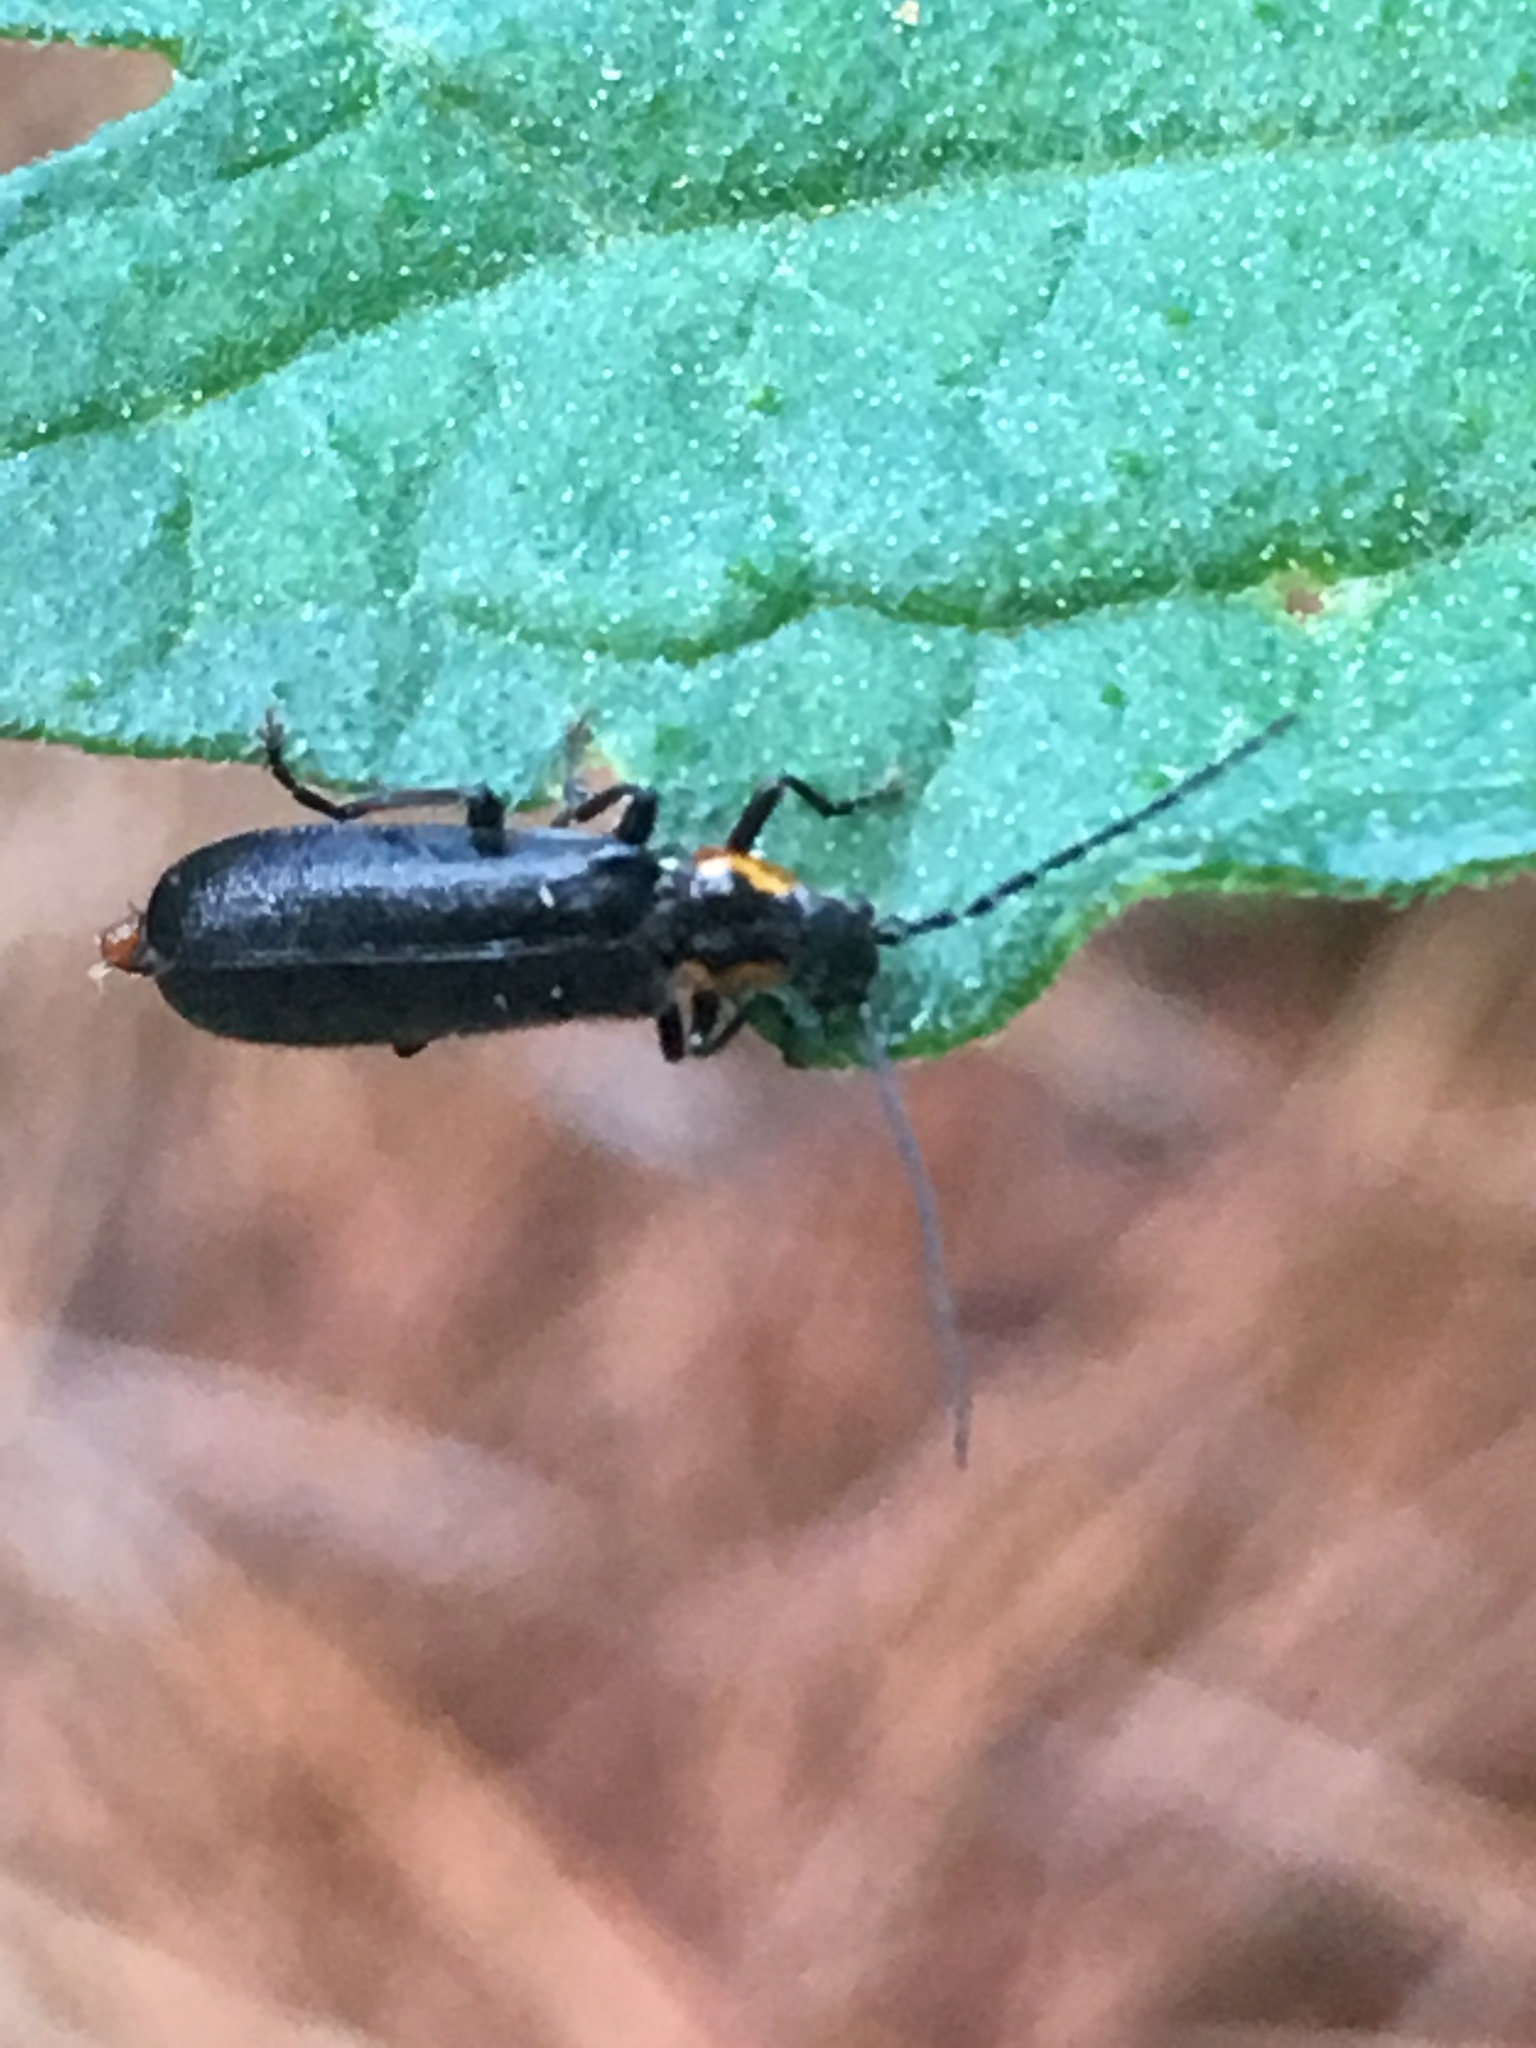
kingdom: Animalia
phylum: Arthropoda
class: Insecta
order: Coleoptera
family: Cantharidae
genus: Rhagonycha
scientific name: Rhagonycha angulata
